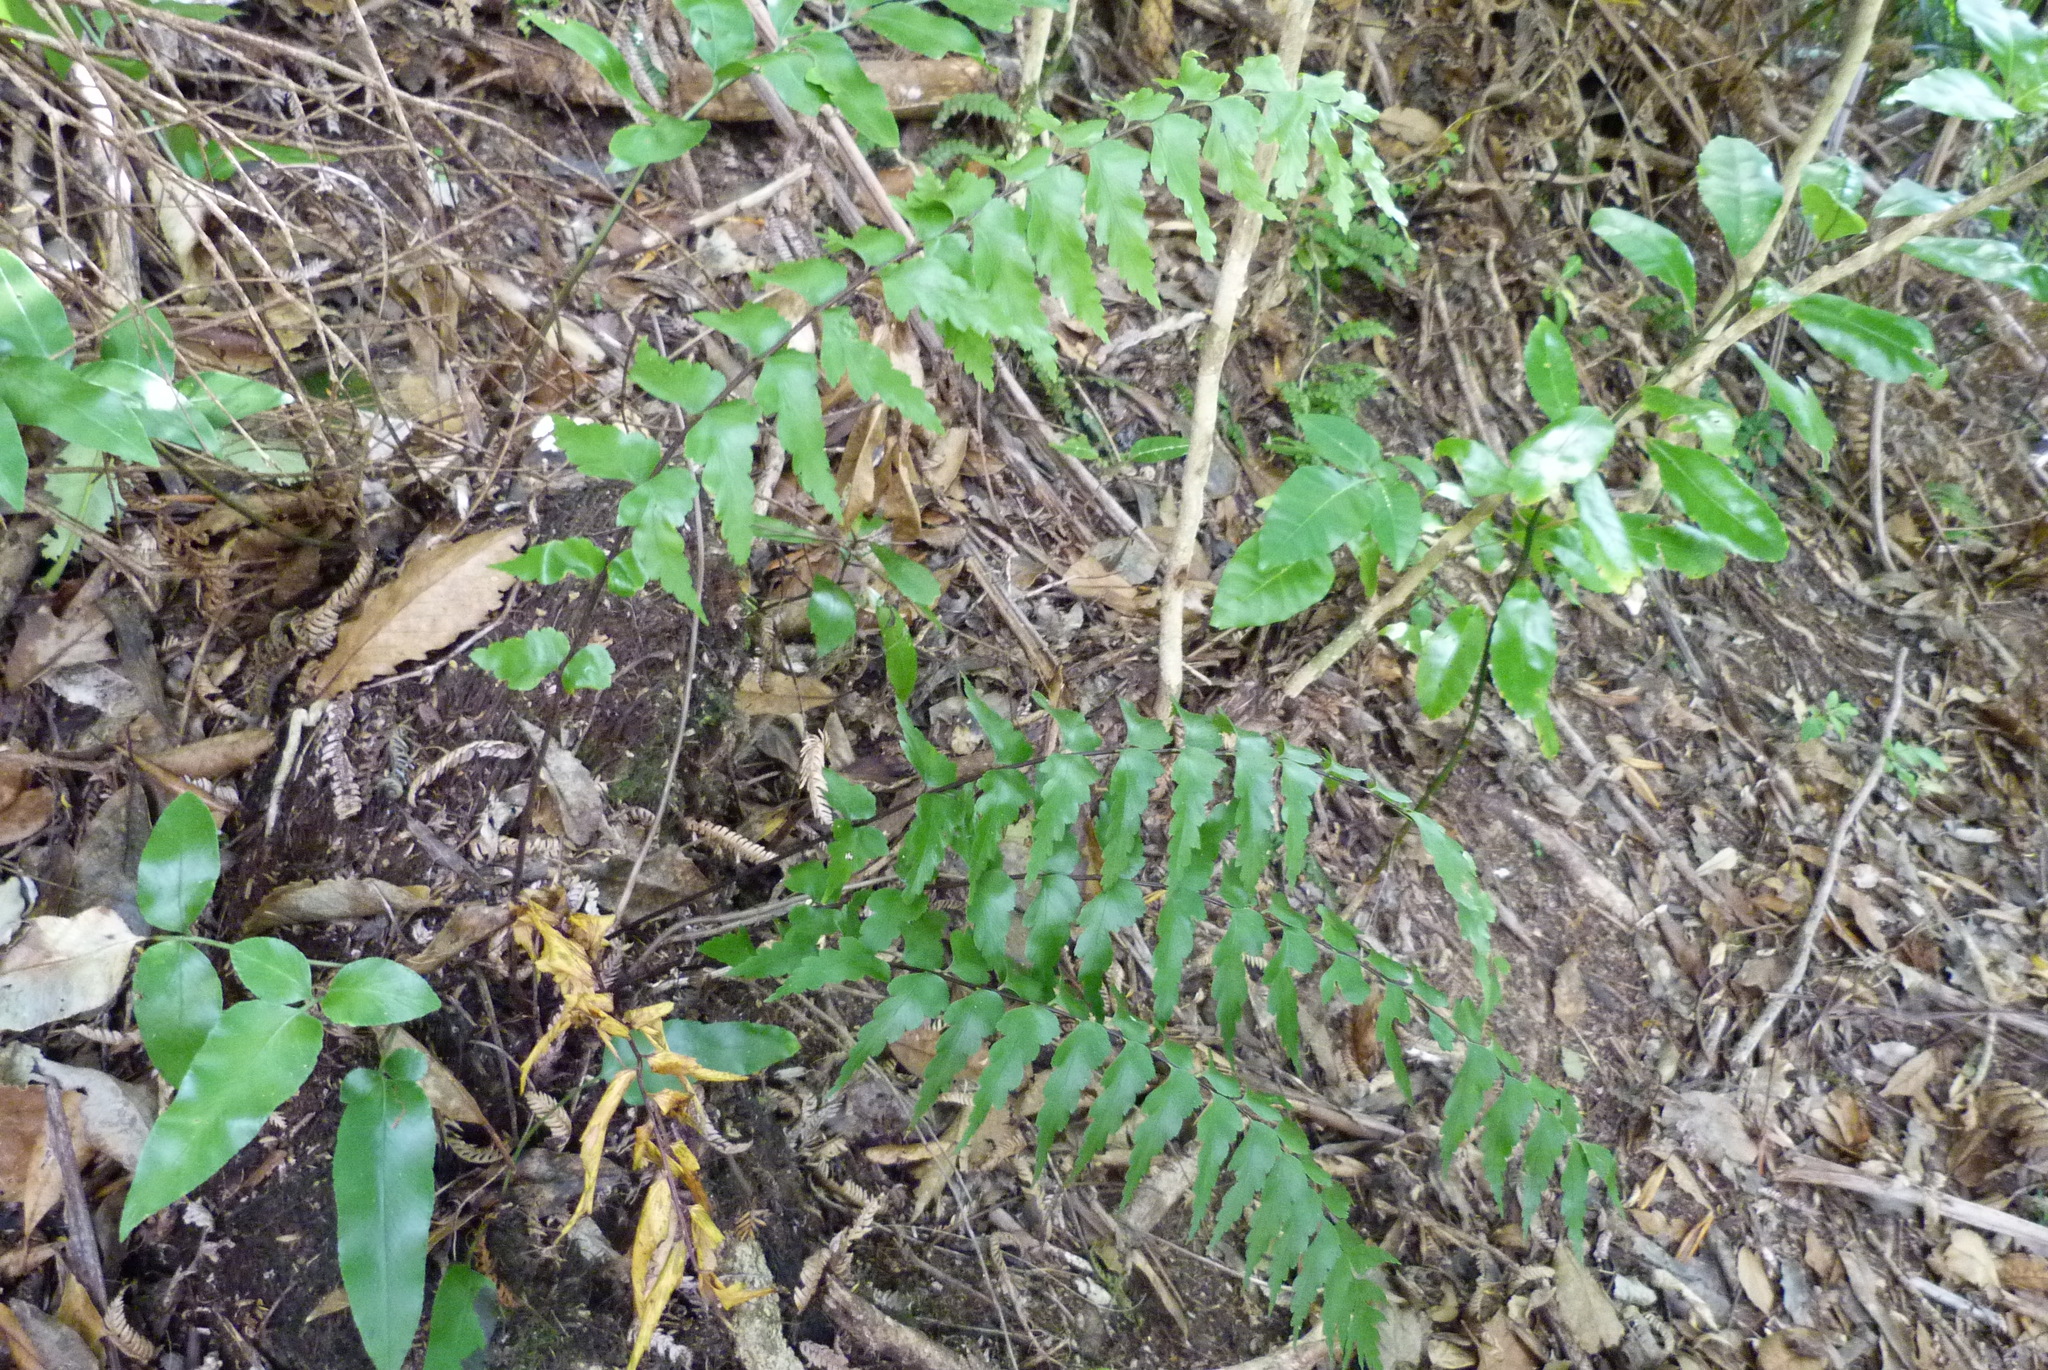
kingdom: Plantae
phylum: Tracheophyta
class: Polypodiopsida
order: Polypodiales
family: Aspleniaceae
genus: Asplenium
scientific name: Asplenium polyodon
